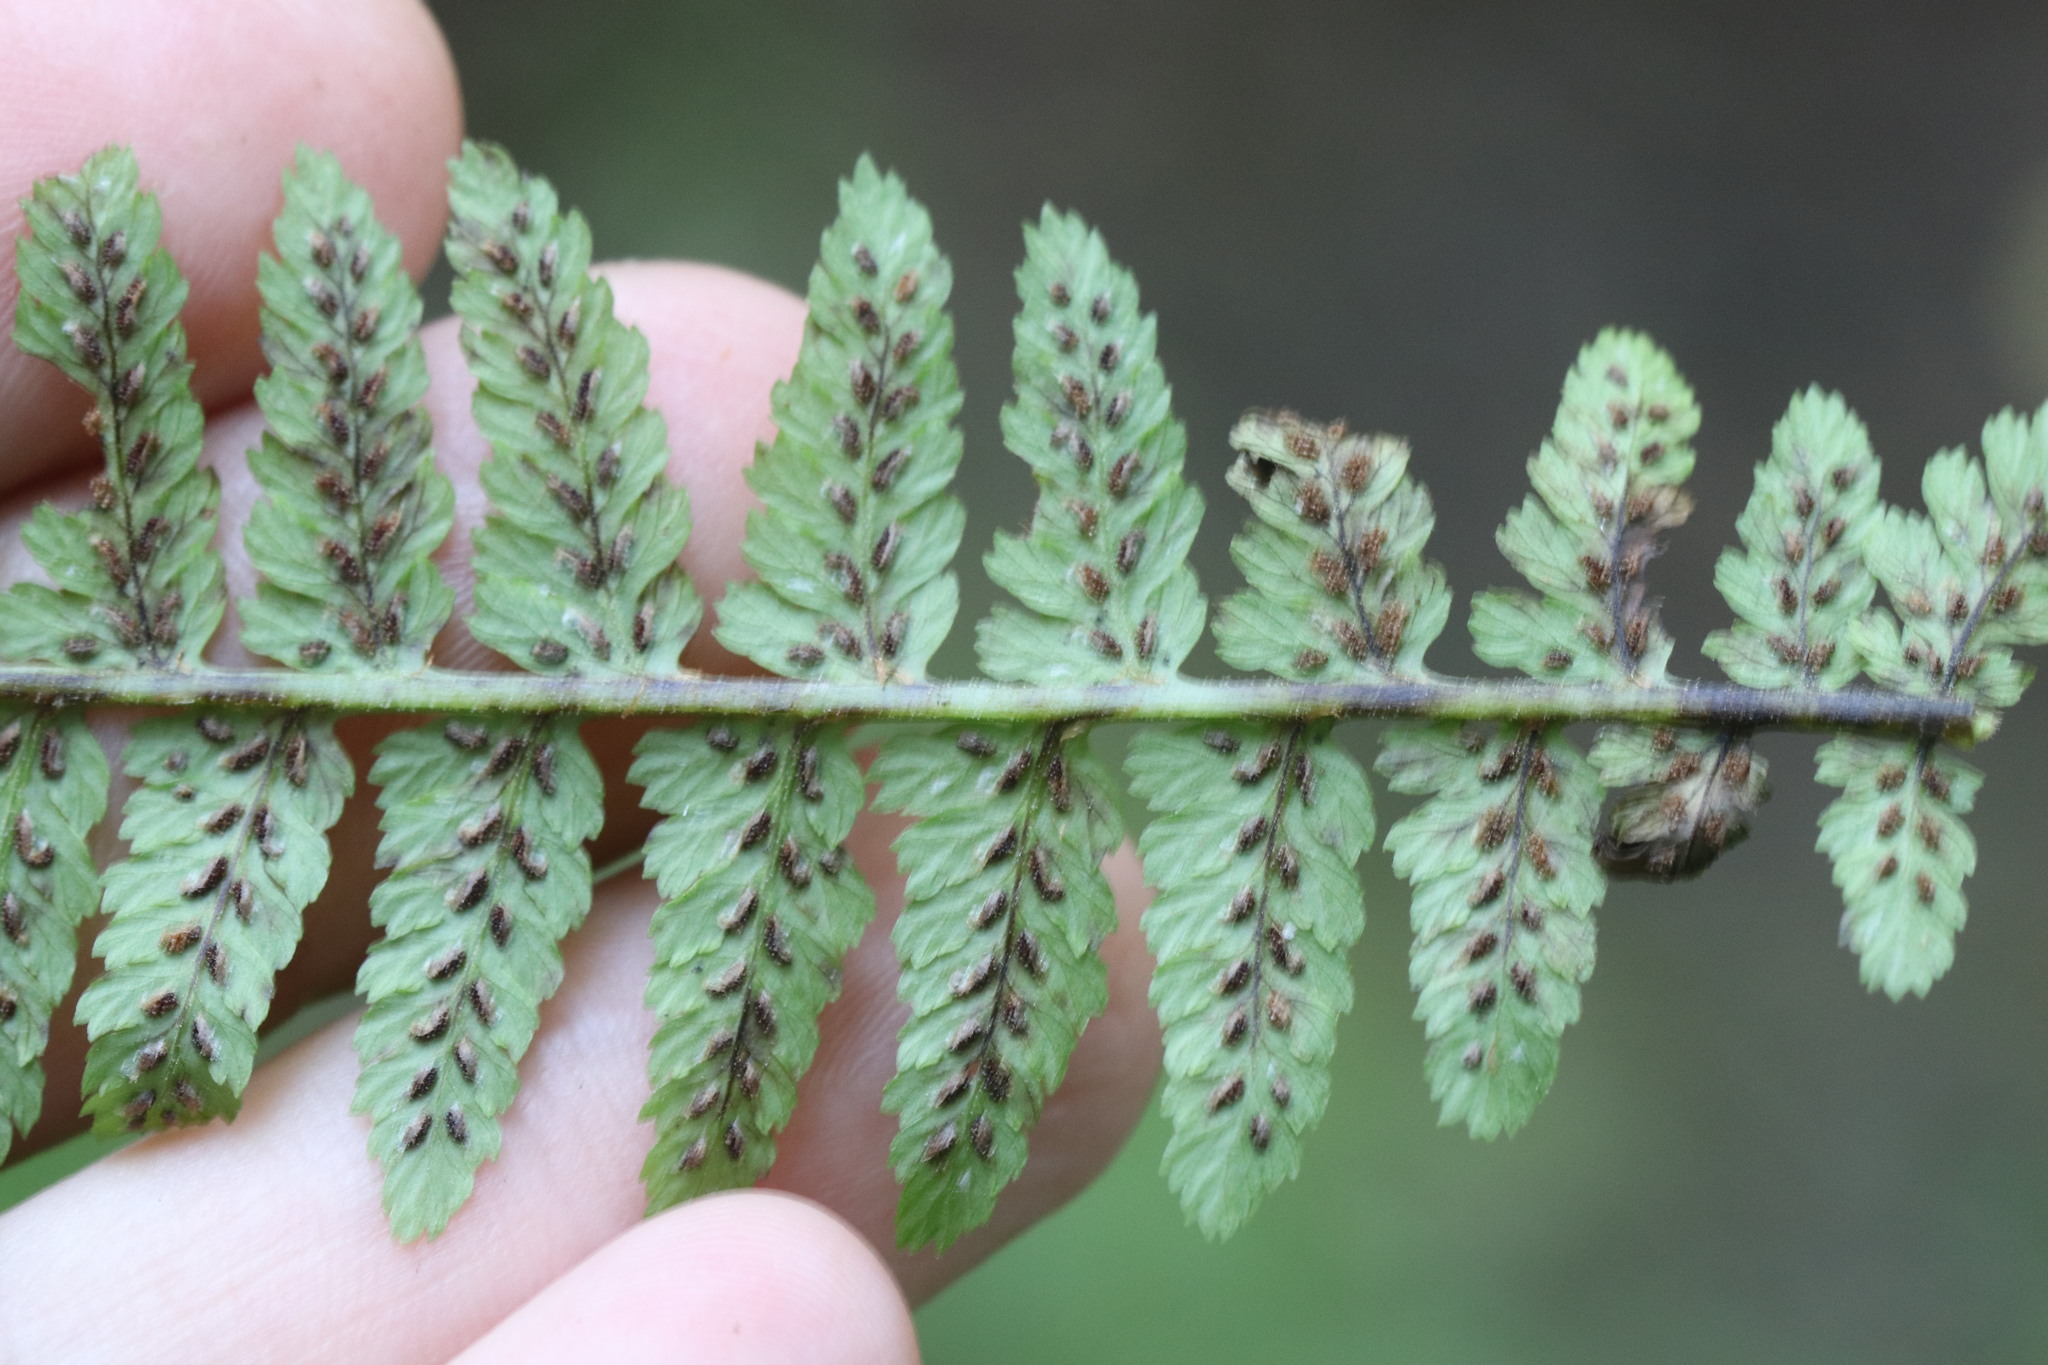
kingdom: Plantae
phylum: Tracheophyta
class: Polypodiopsida
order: Polypodiales
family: Athyriaceae
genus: Athyrium
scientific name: Athyrium filix-femina
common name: Lady fern
